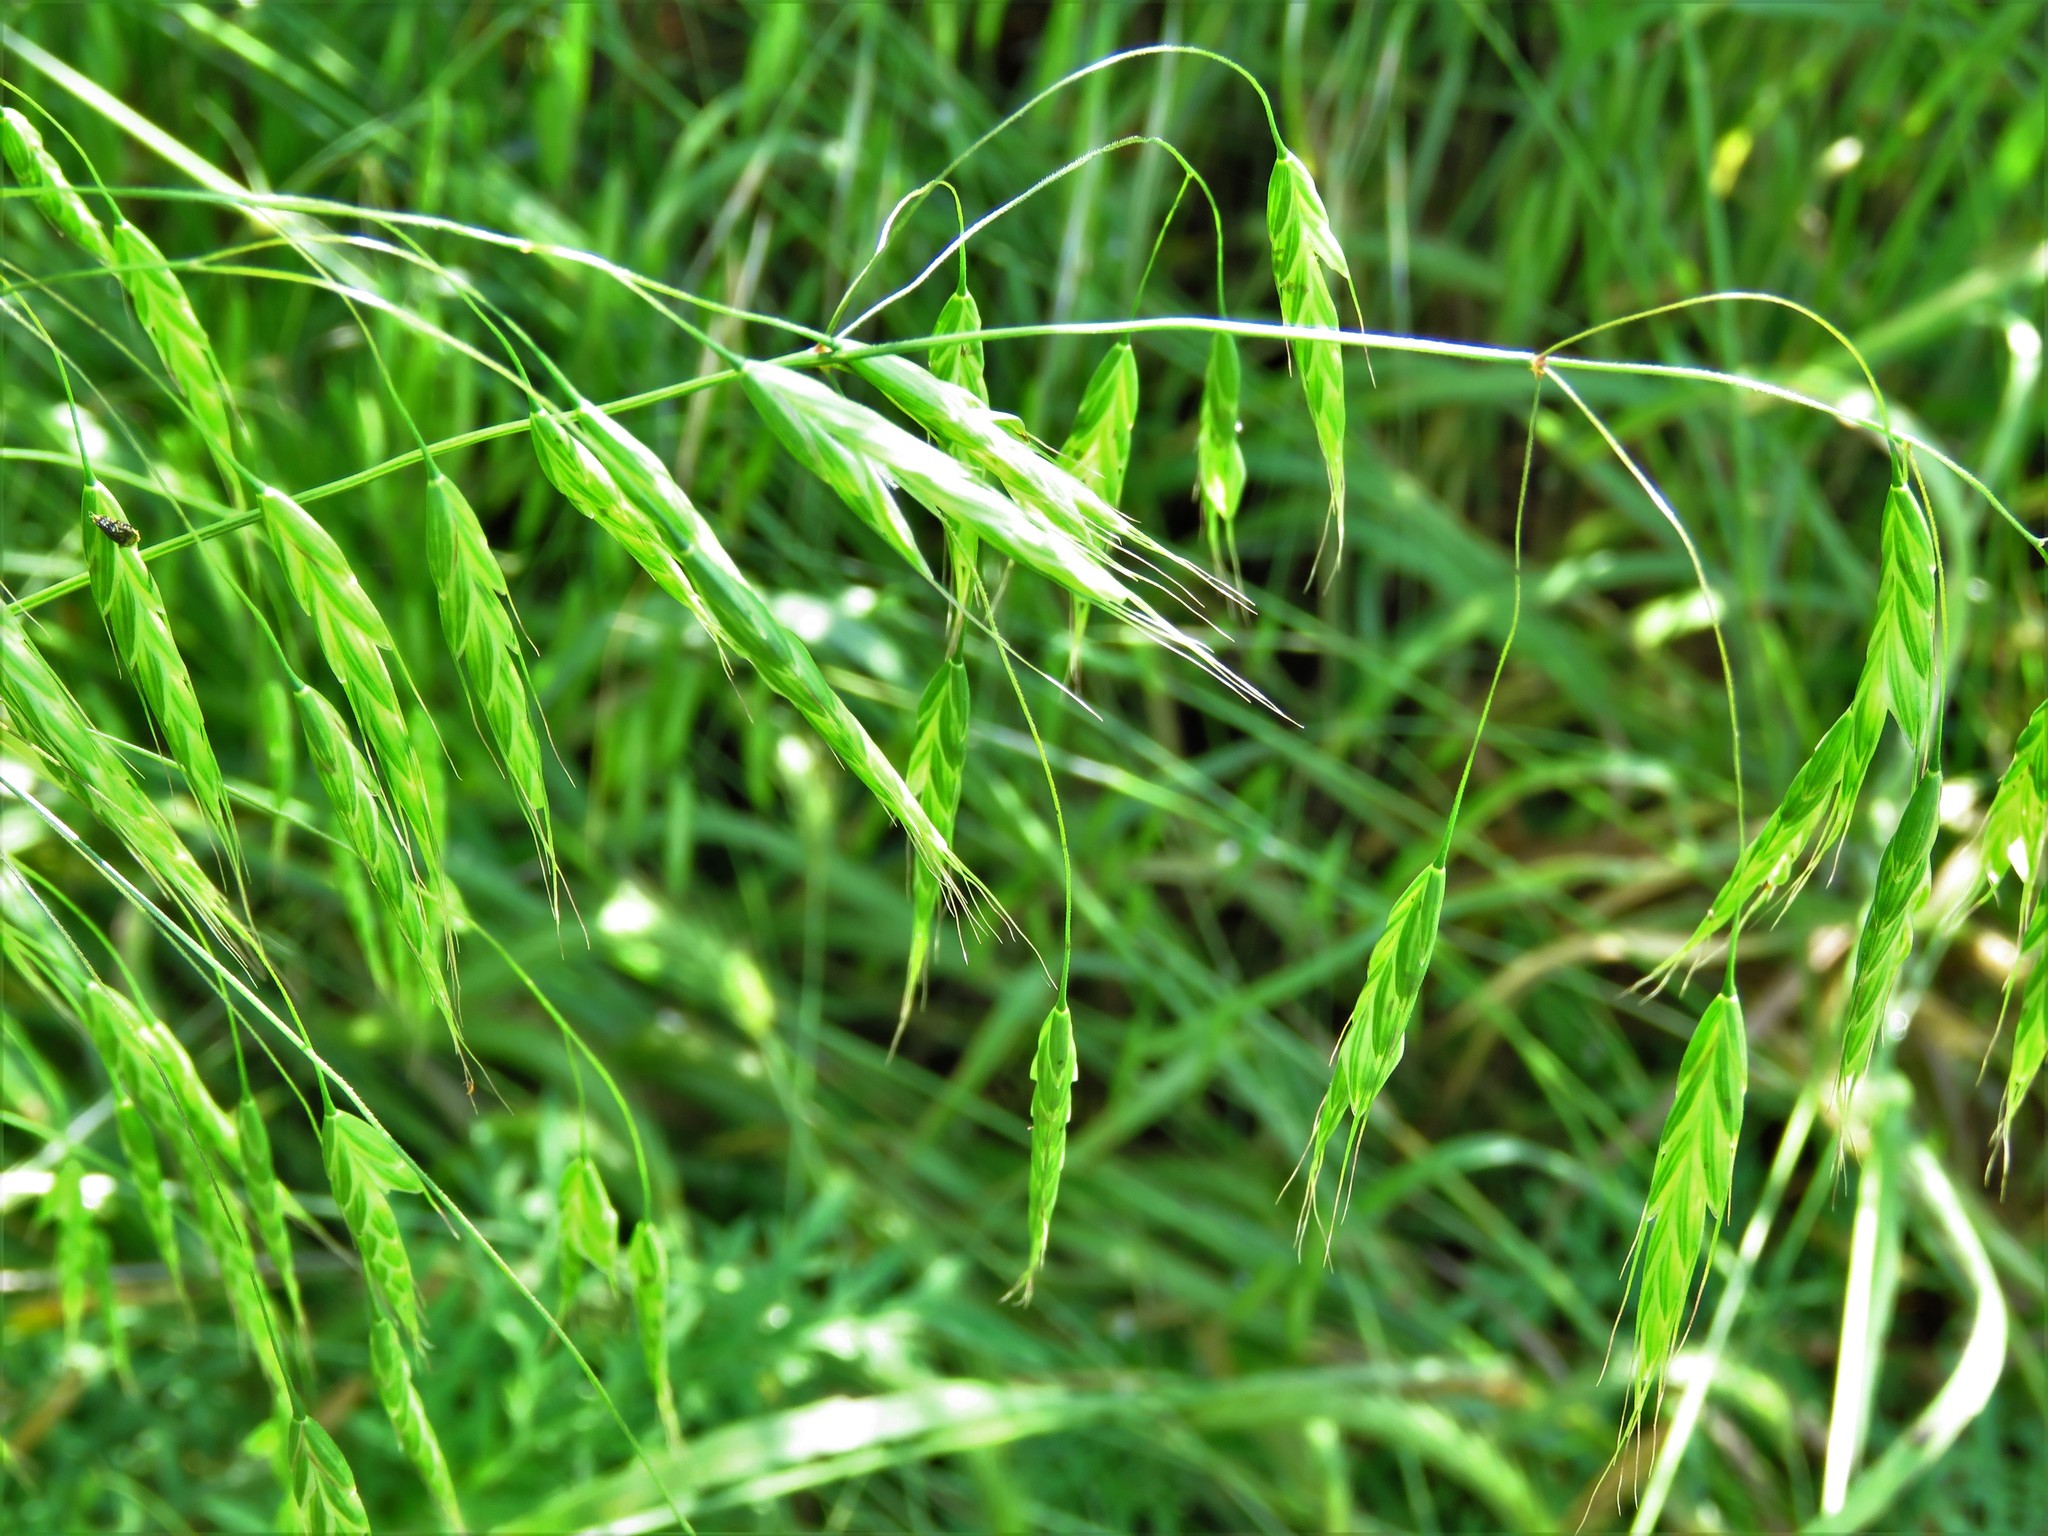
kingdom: Plantae
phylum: Tracheophyta
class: Liliopsida
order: Poales
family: Poaceae
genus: Bromus
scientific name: Bromus japonicus
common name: Japanese brome
